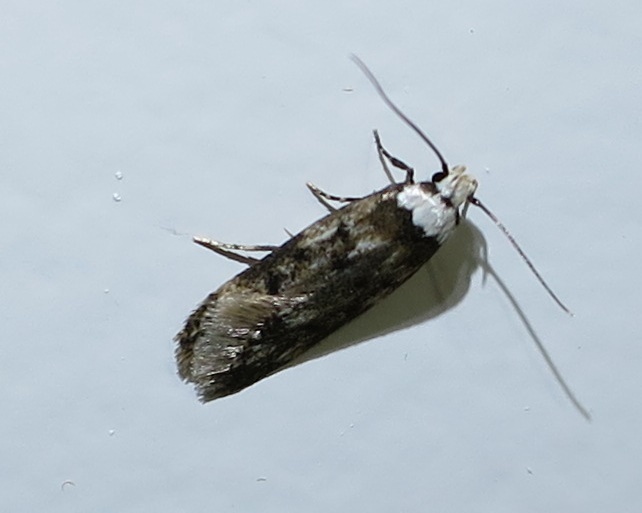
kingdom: Animalia
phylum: Arthropoda
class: Insecta
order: Lepidoptera
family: Oecophoridae
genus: Endrosis
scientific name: Endrosis sarcitrella
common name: White-shouldered house moth
